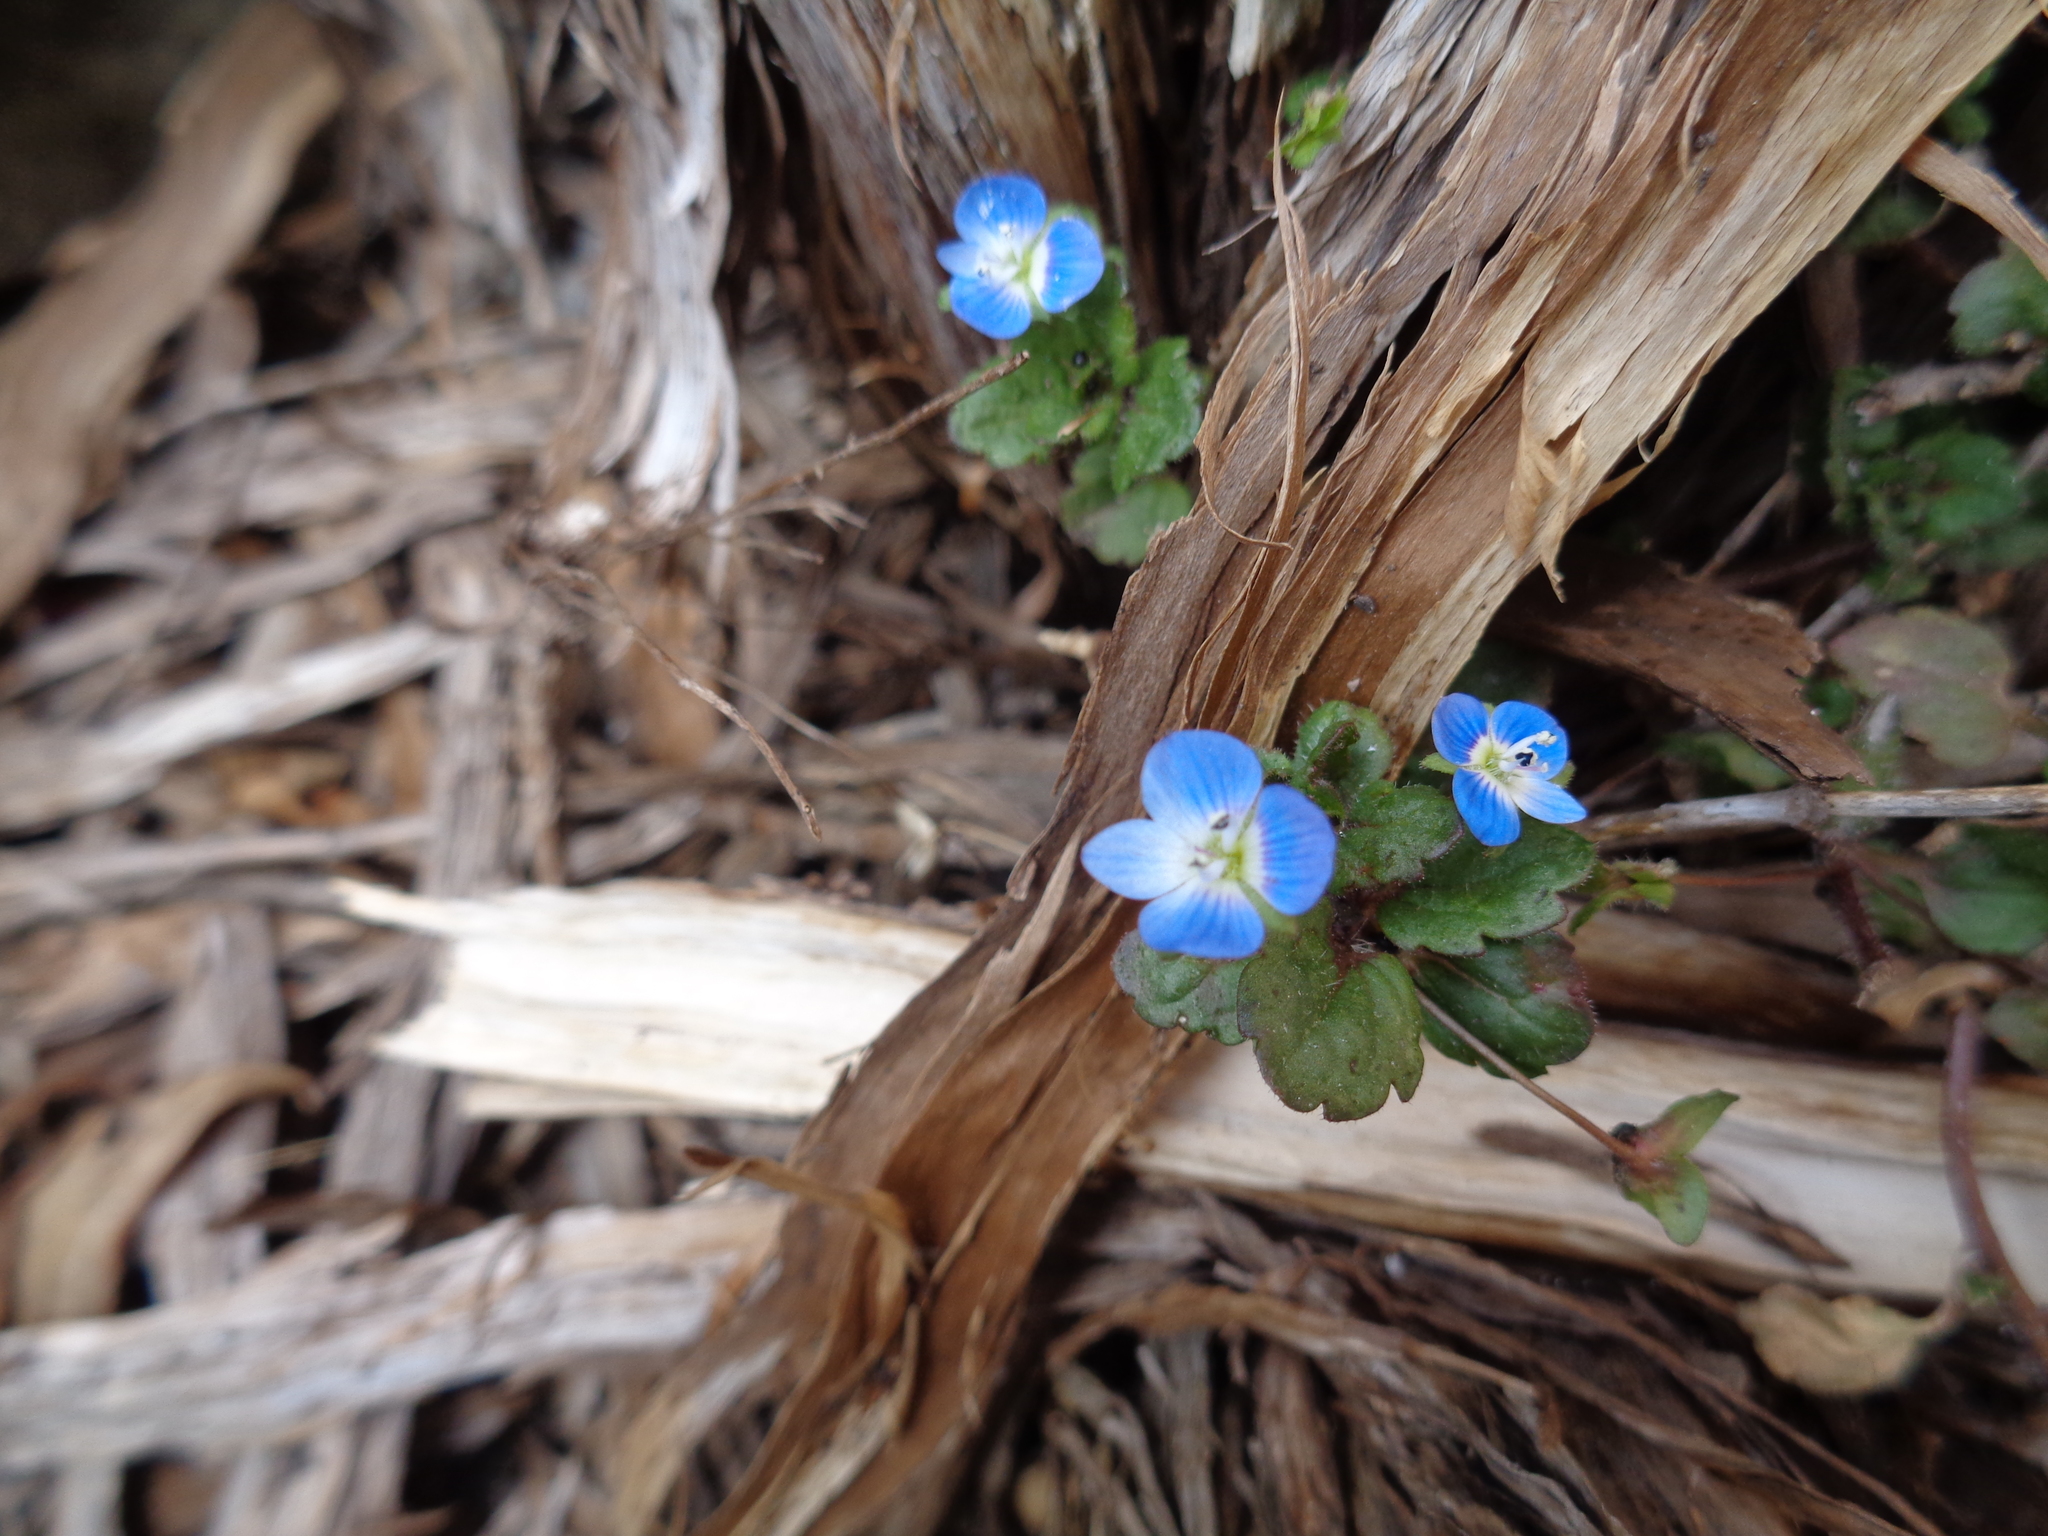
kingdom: Plantae
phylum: Tracheophyta
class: Magnoliopsida
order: Lamiales
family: Plantaginaceae
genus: Veronica
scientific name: Veronica persica
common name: Common field-speedwell
